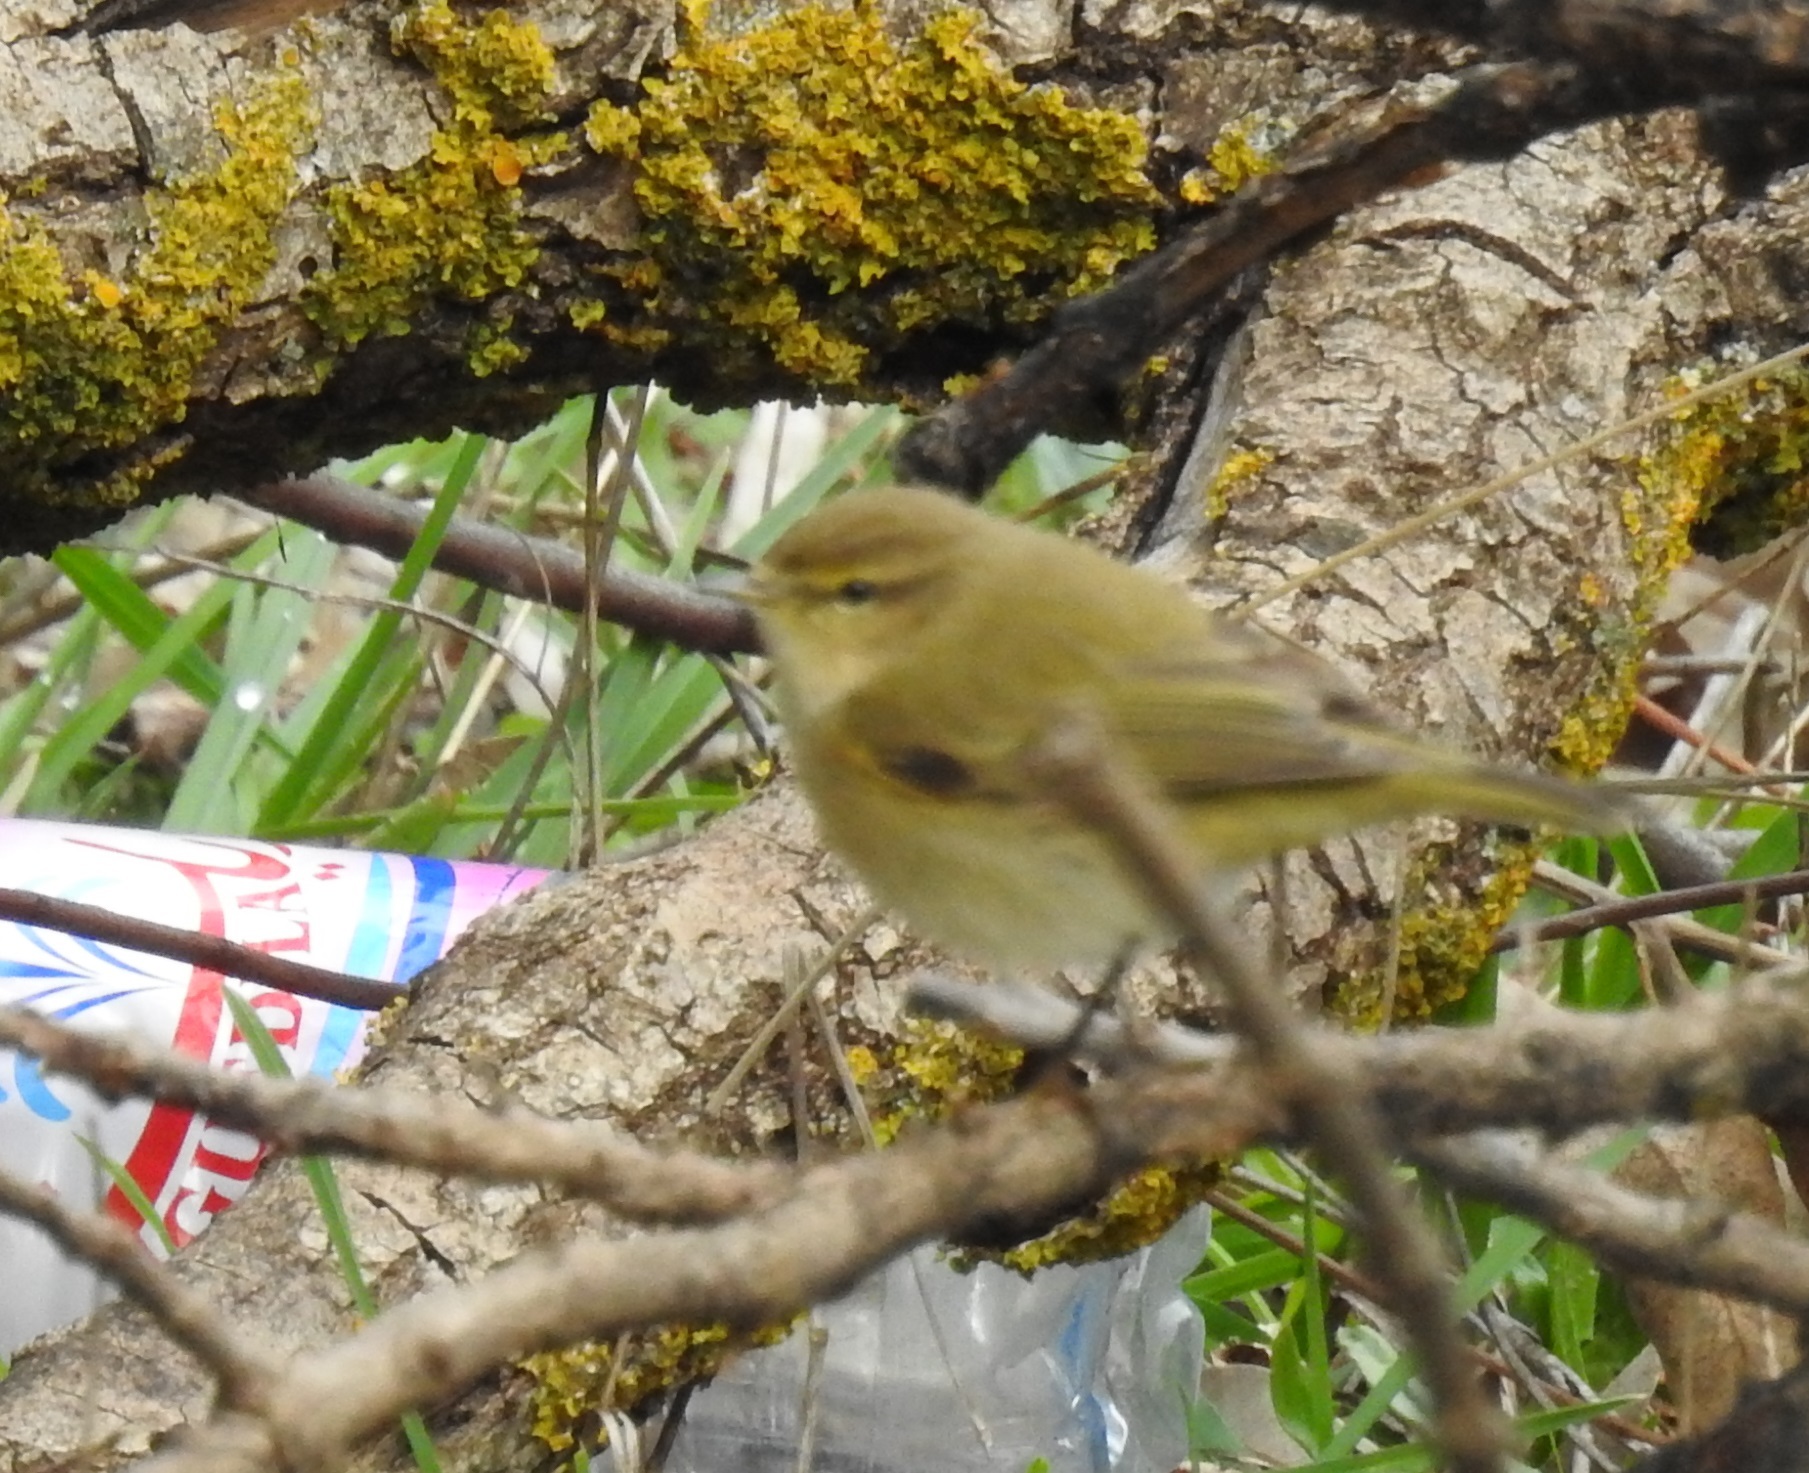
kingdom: Animalia
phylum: Chordata
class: Aves
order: Passeriformes
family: Phylloscopidae
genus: Phylloscopus
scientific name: Phylloscopus collybita
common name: Common chiffchaff
